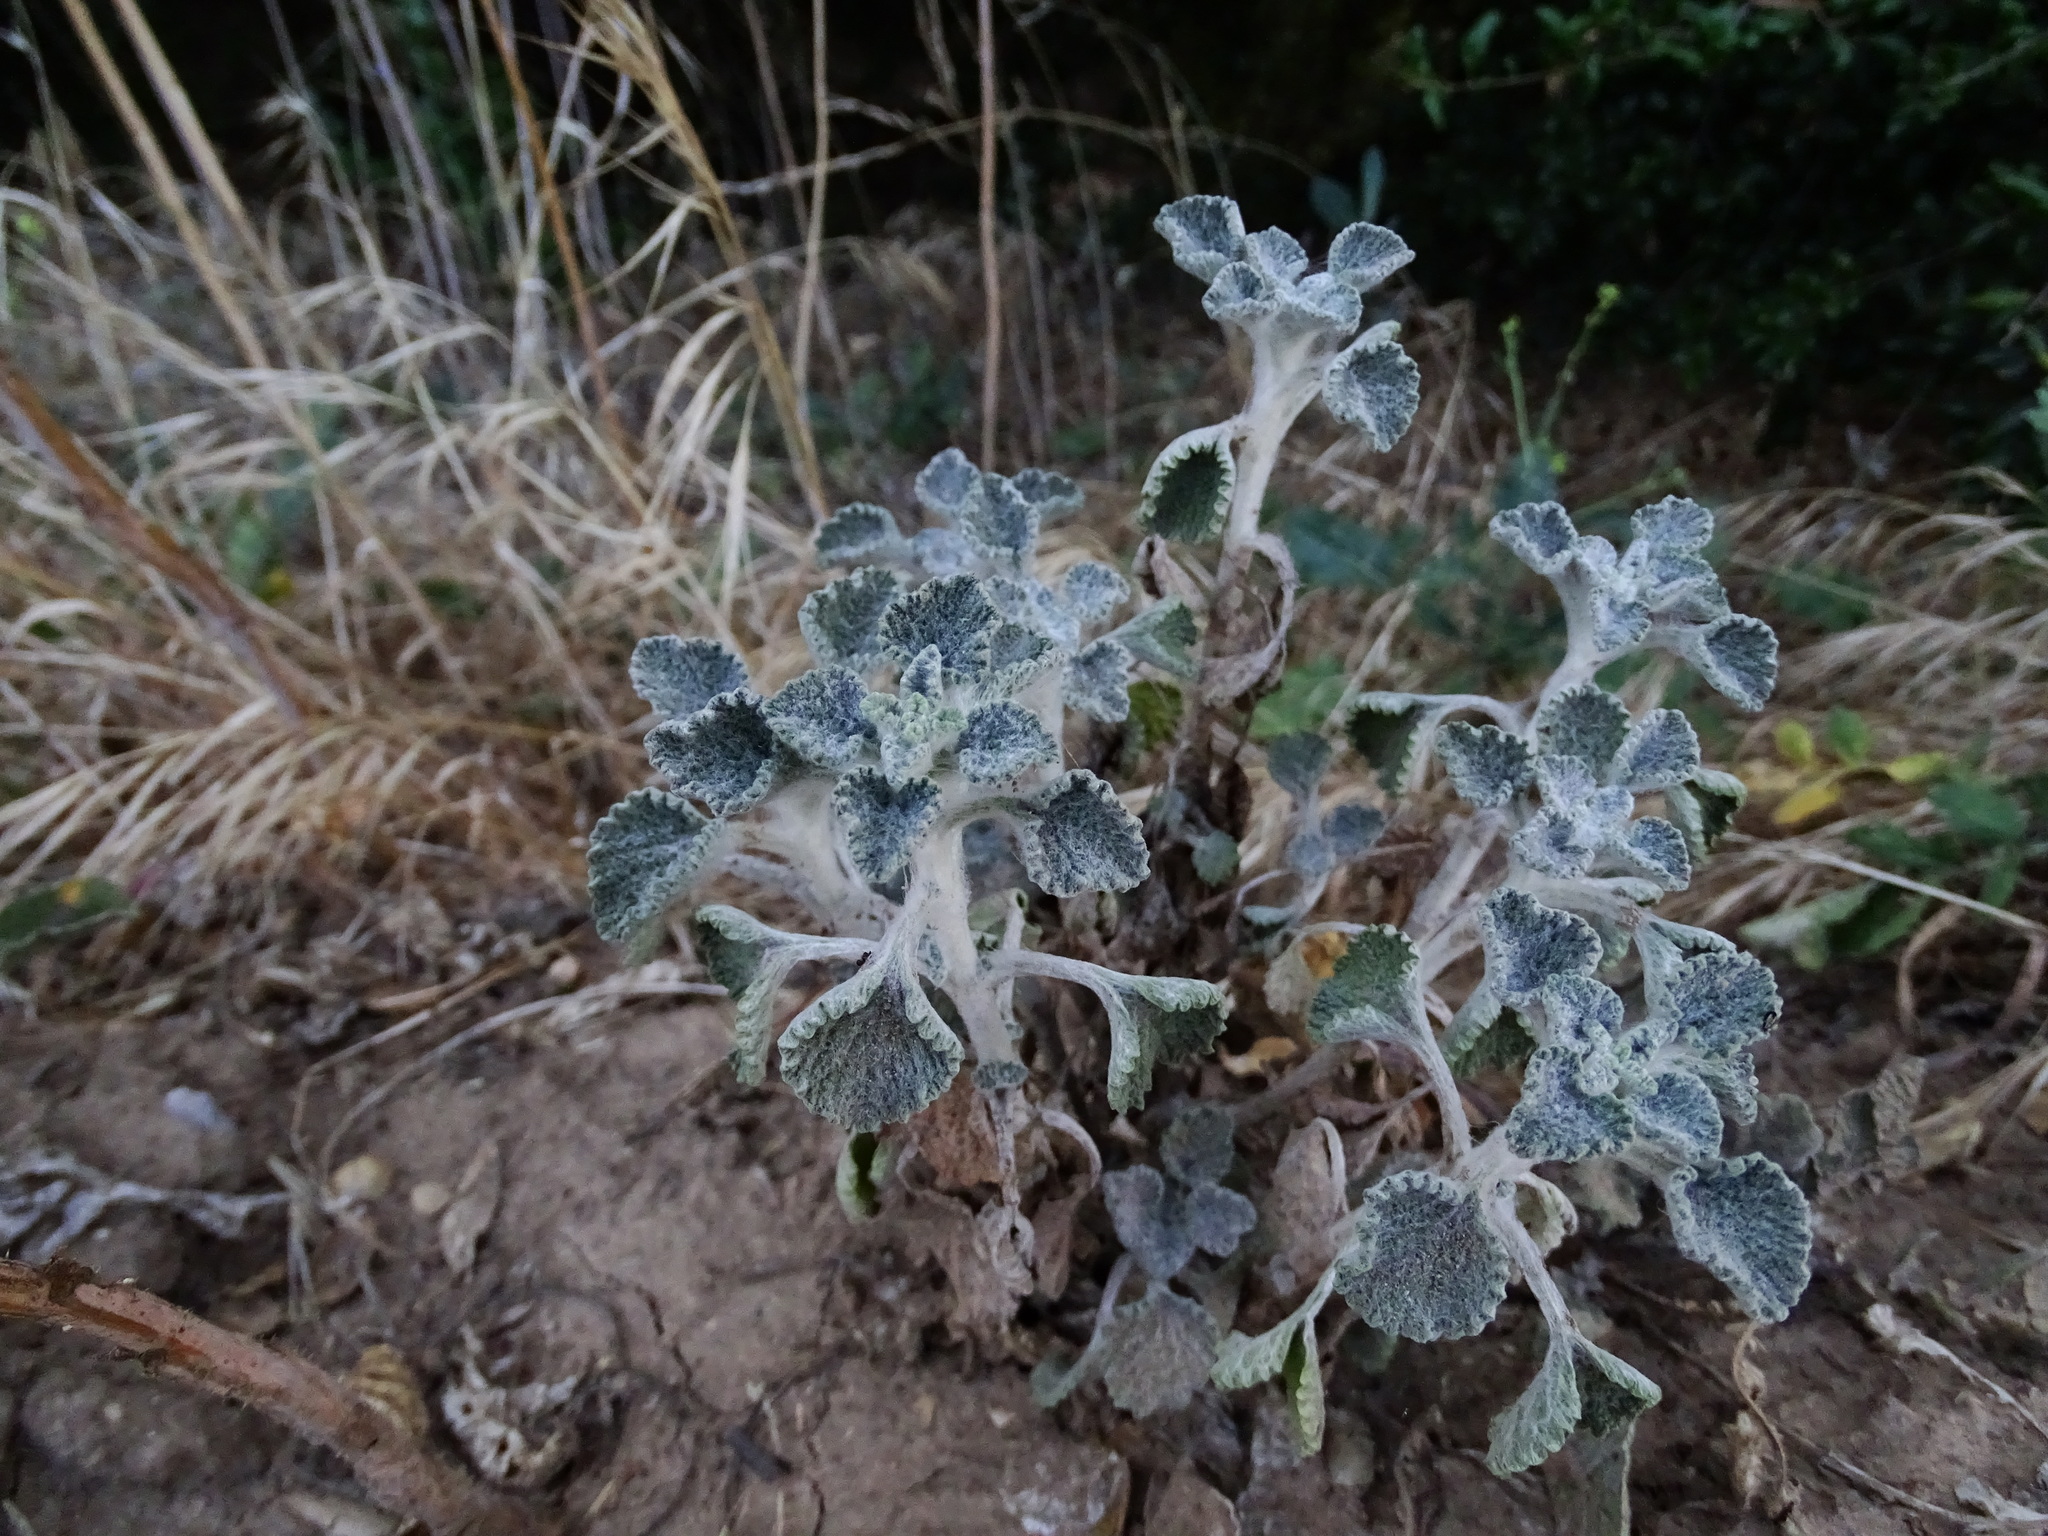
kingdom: Plantae
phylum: Tracheophyta
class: Magnoliopsida
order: Lamiales
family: Lamiaceae
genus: Marrubium
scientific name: Marrubium vulgare
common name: Horehound
